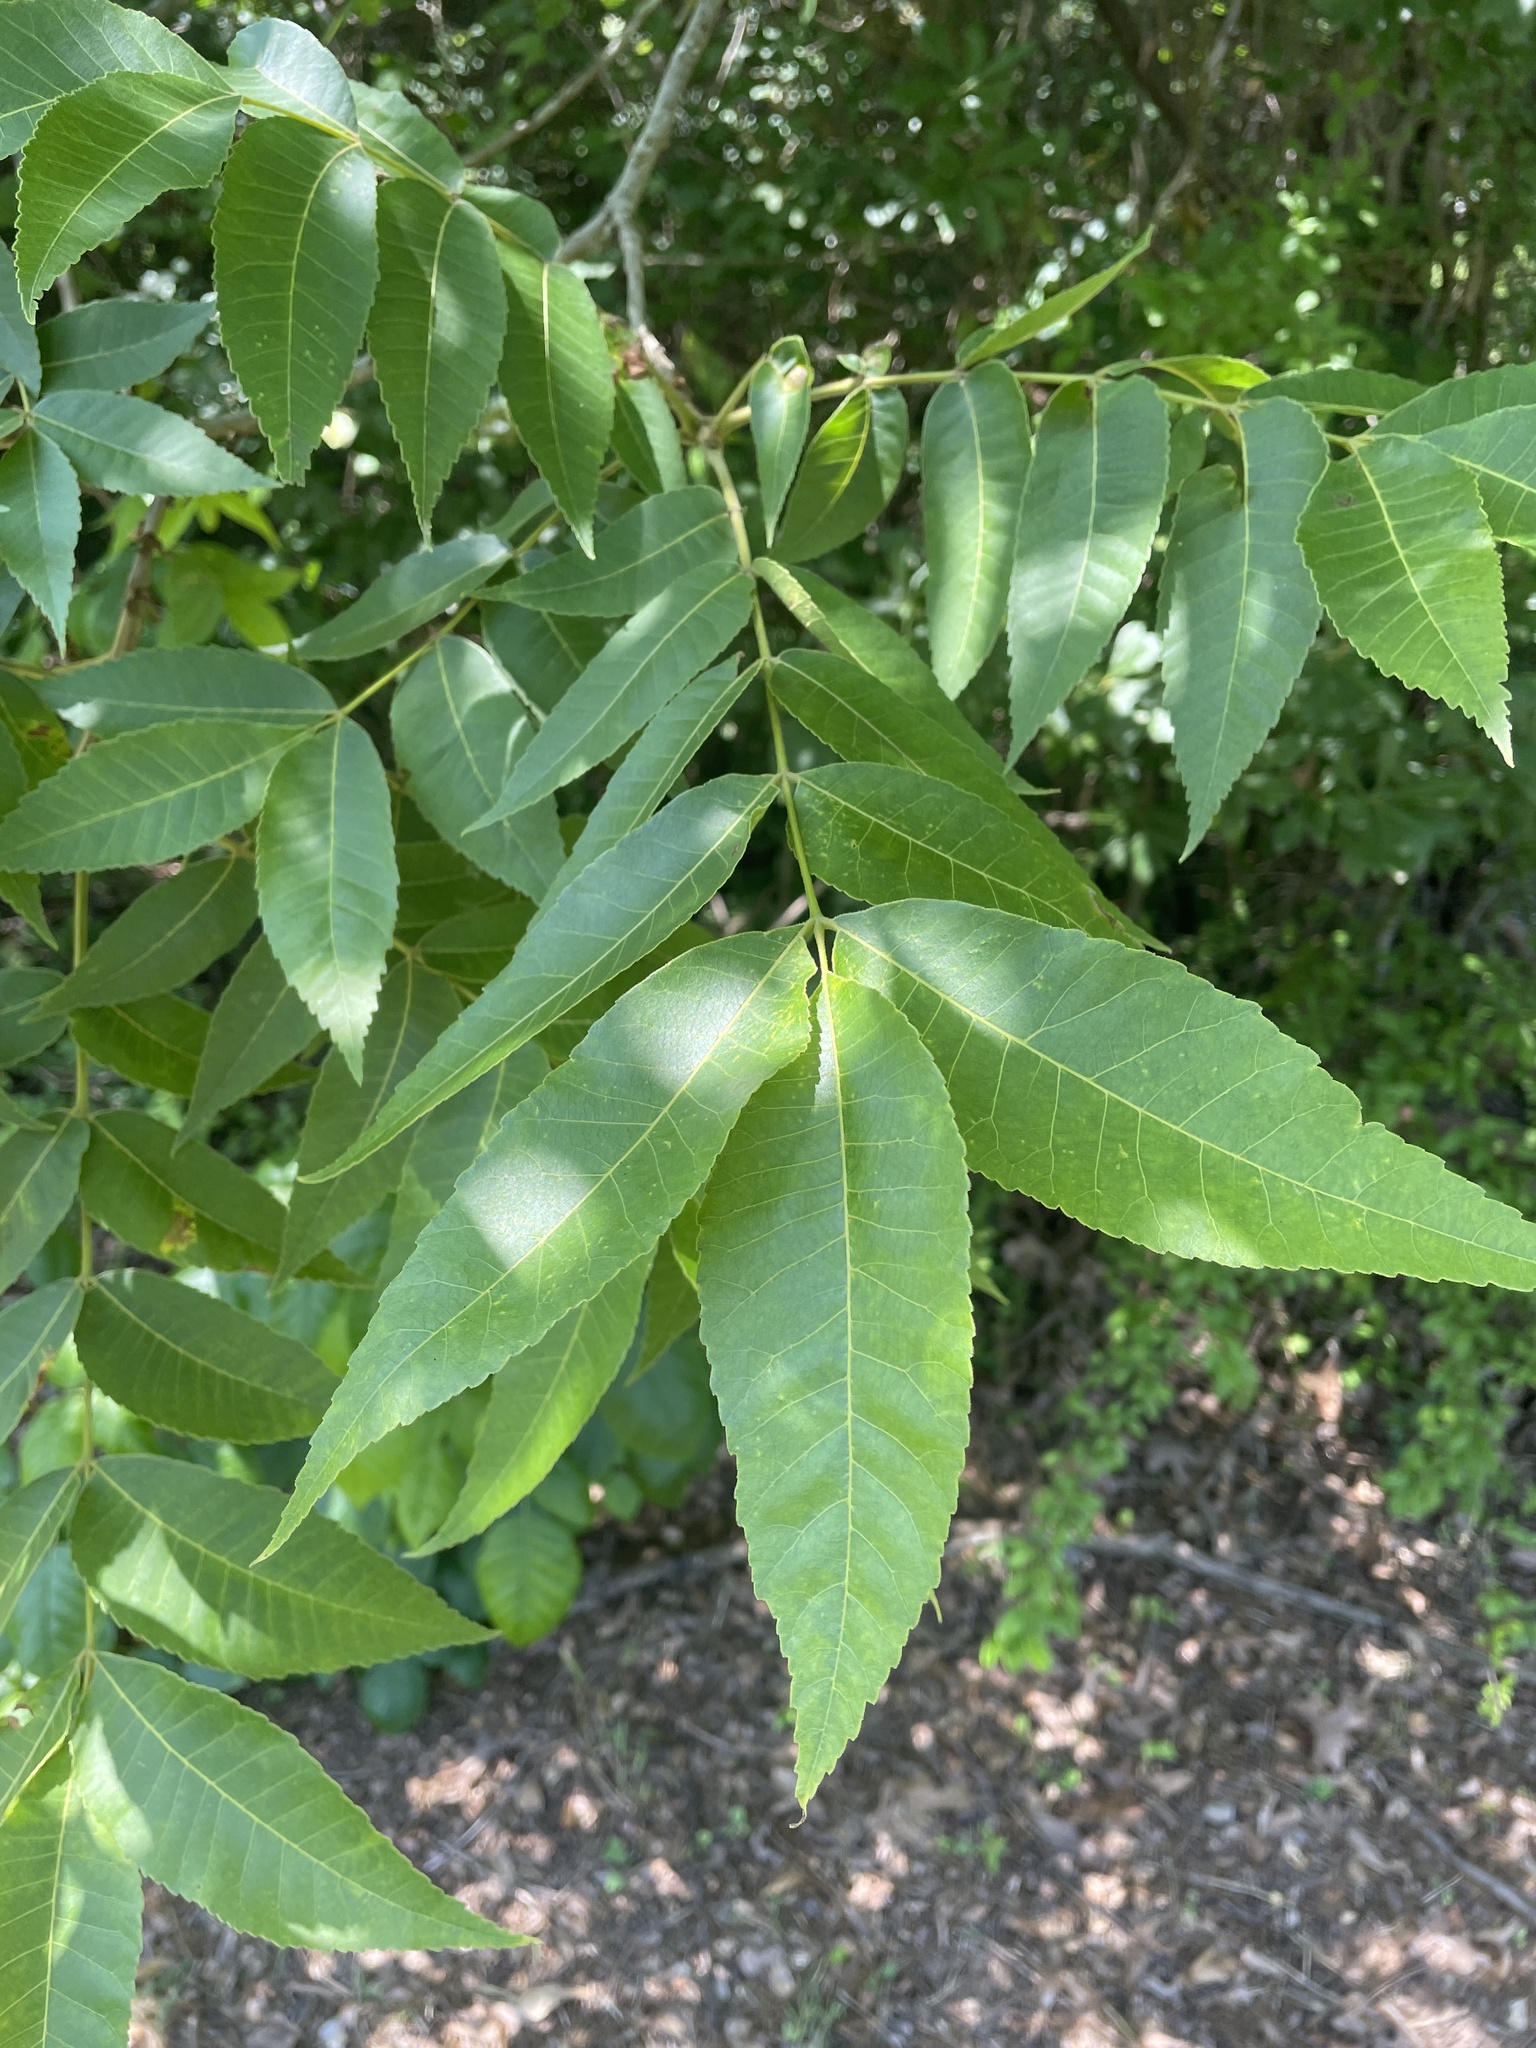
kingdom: Plantae
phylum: Tracheophyta
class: Magnoliopsida
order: Fagales
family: Juglandaceae
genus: Carya
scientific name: Carya illinoinensis
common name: Pecan
